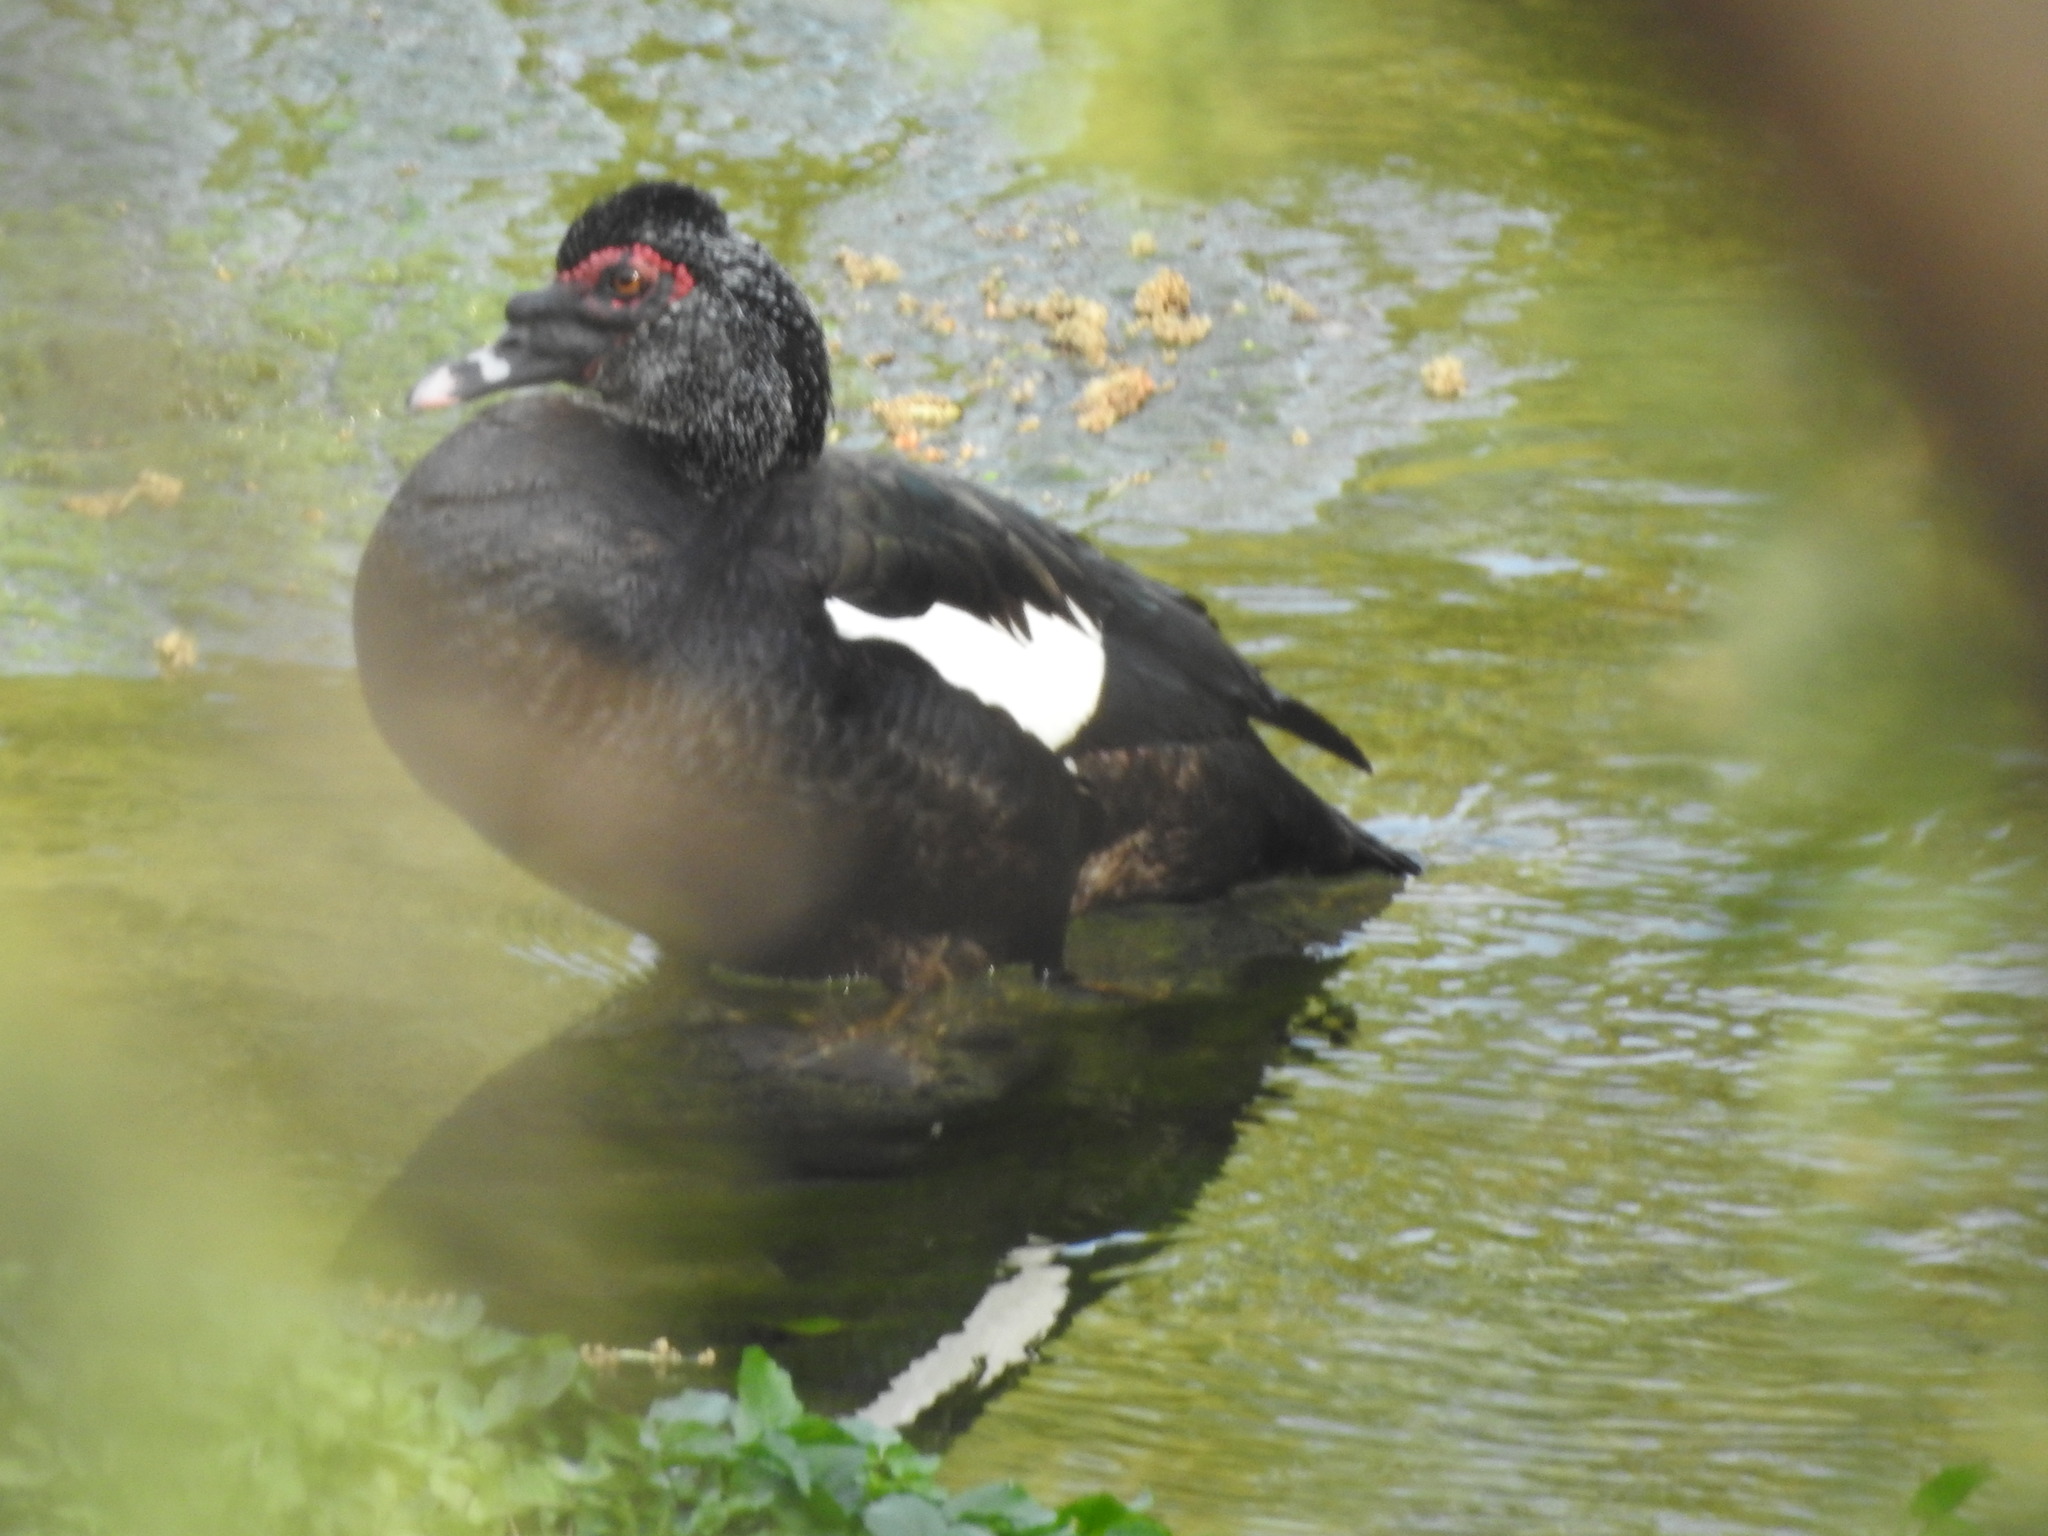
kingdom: Animalia
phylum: Chordata
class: Aves
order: Anseriformes
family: Anatidae
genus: Cairina
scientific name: Cairina moschata
